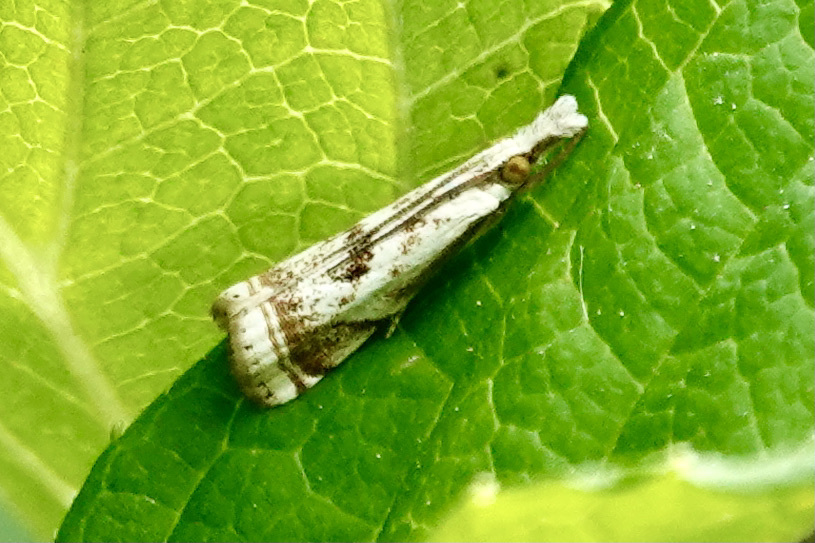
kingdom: Animalia
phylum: Arthropoda
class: Insecta
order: Lepidoptera
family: Crambidae
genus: Microcrambus
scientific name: Microcrambus elegans
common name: Elegant grass-veneer
